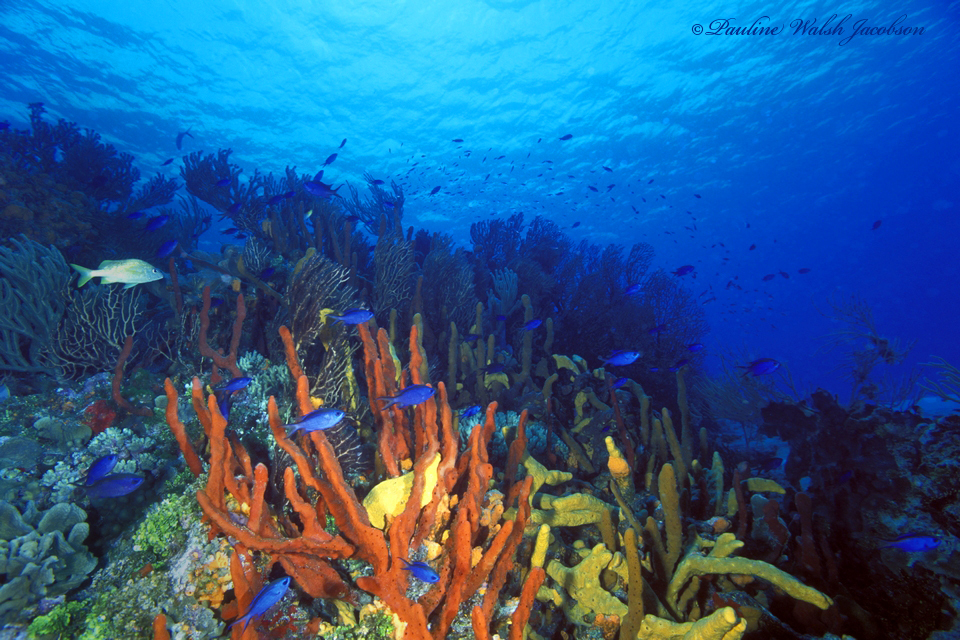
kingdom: Animalia
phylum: Chordata
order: Perciformes
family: Pomacentridae
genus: Chromis
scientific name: Chromis cyanea
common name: Blue chromis
